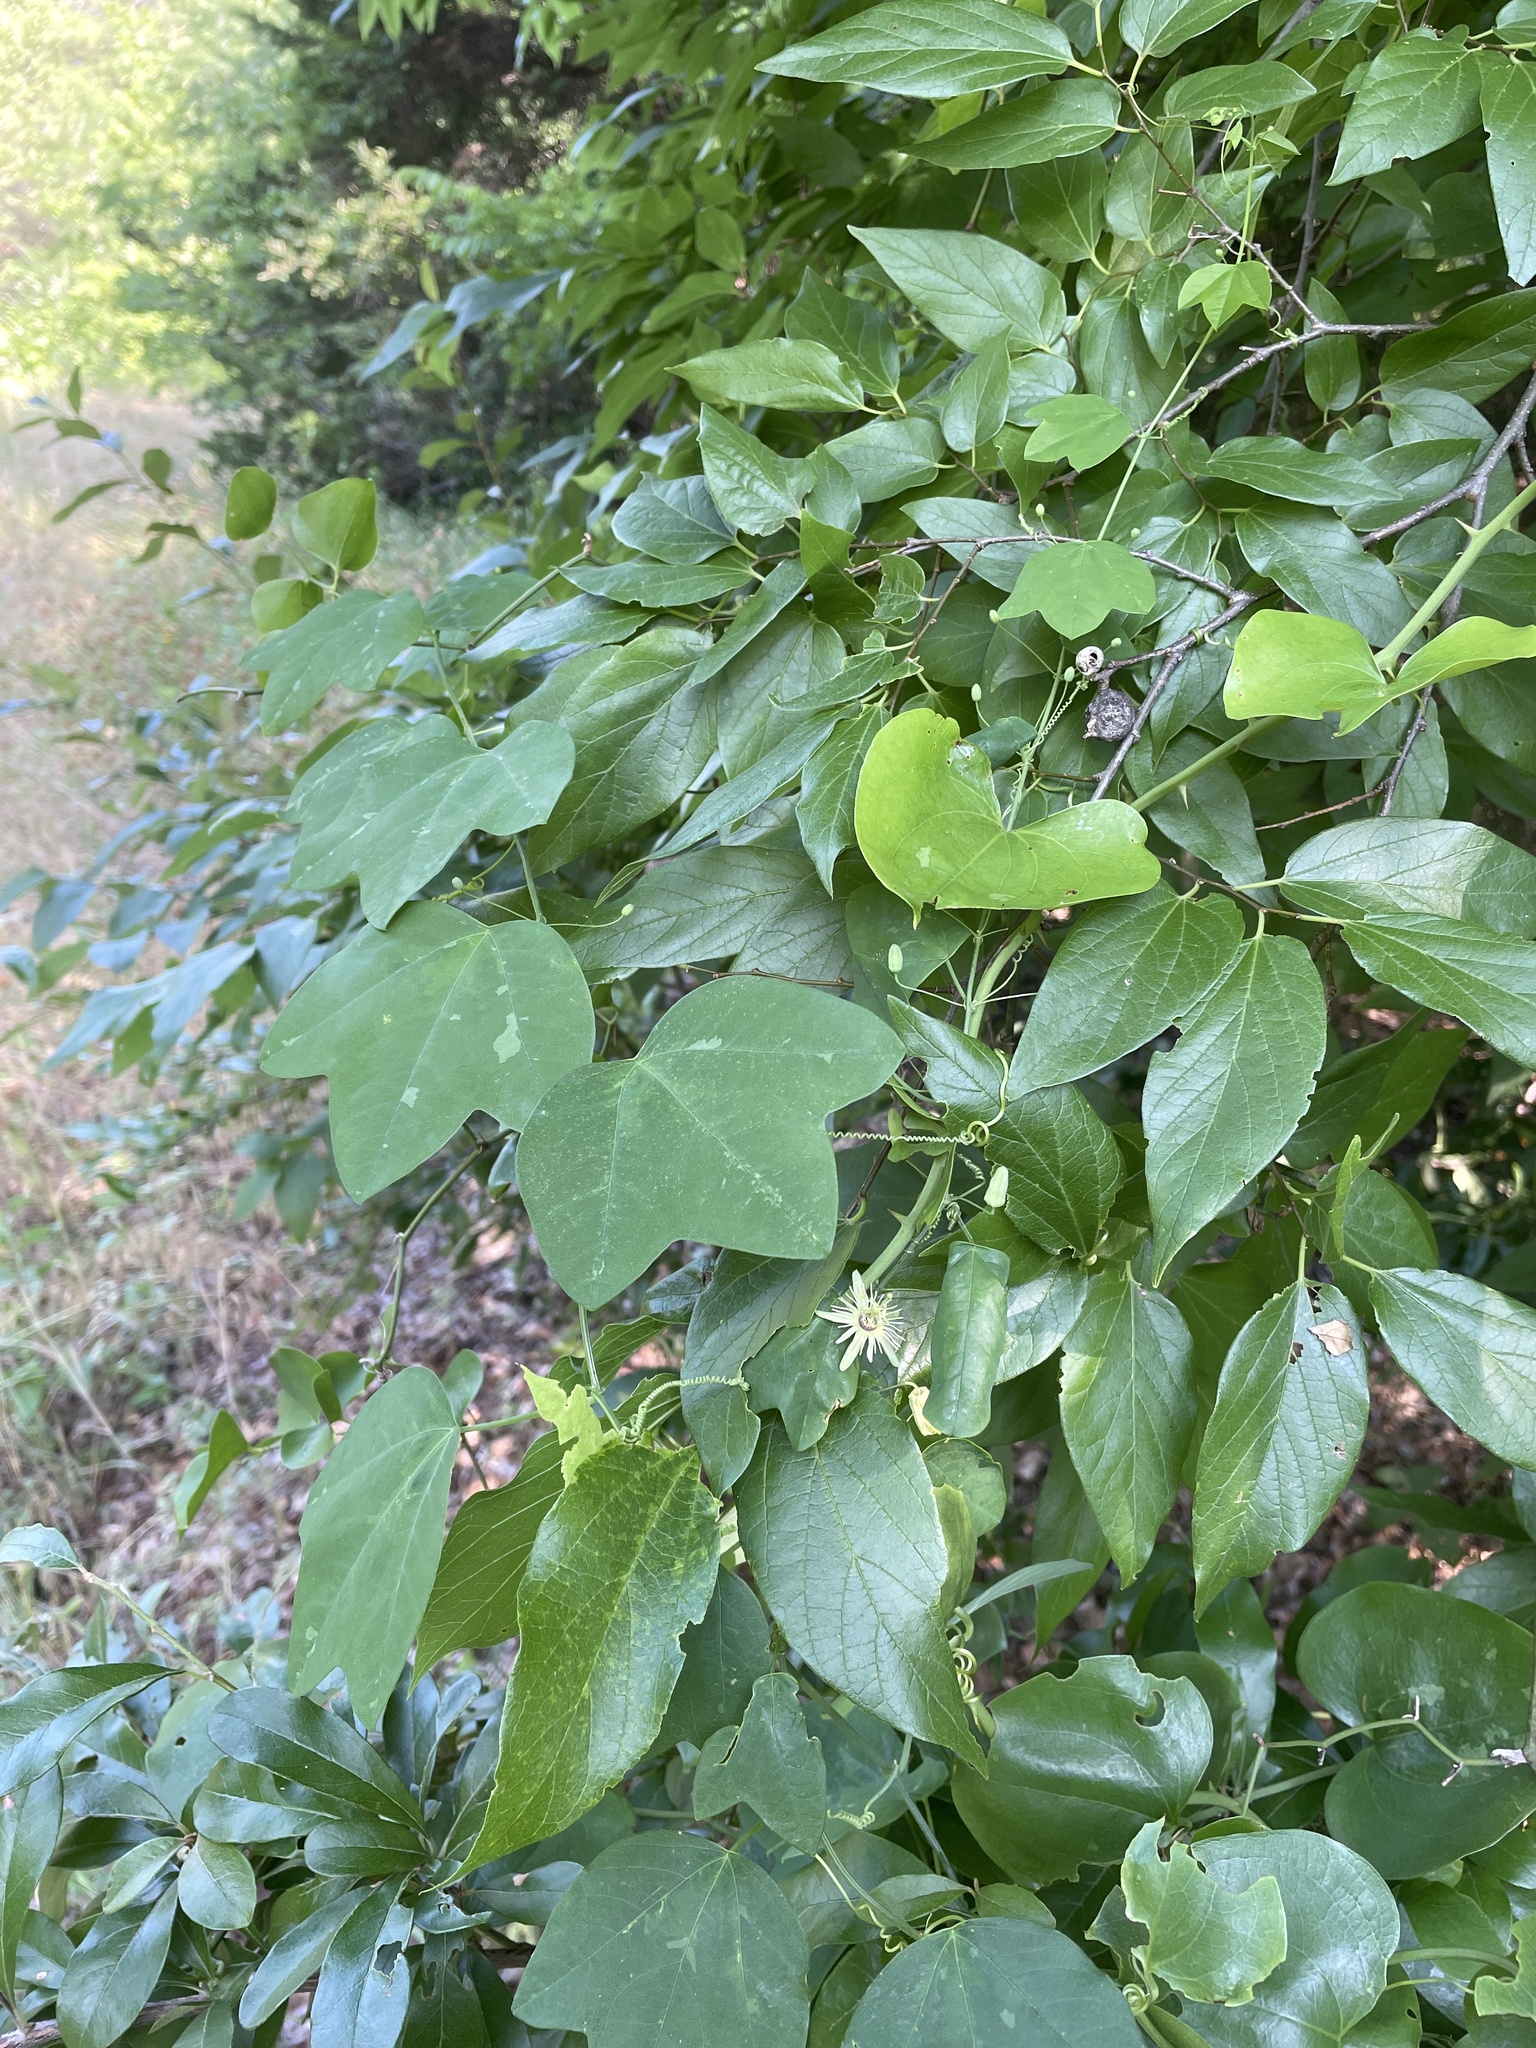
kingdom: Plantae
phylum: Tracheophyta
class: Magnoliopsida
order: Malpighiales
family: Passifloraceae
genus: Passiflora
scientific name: Passiflora lutea
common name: Yellow passionflower
